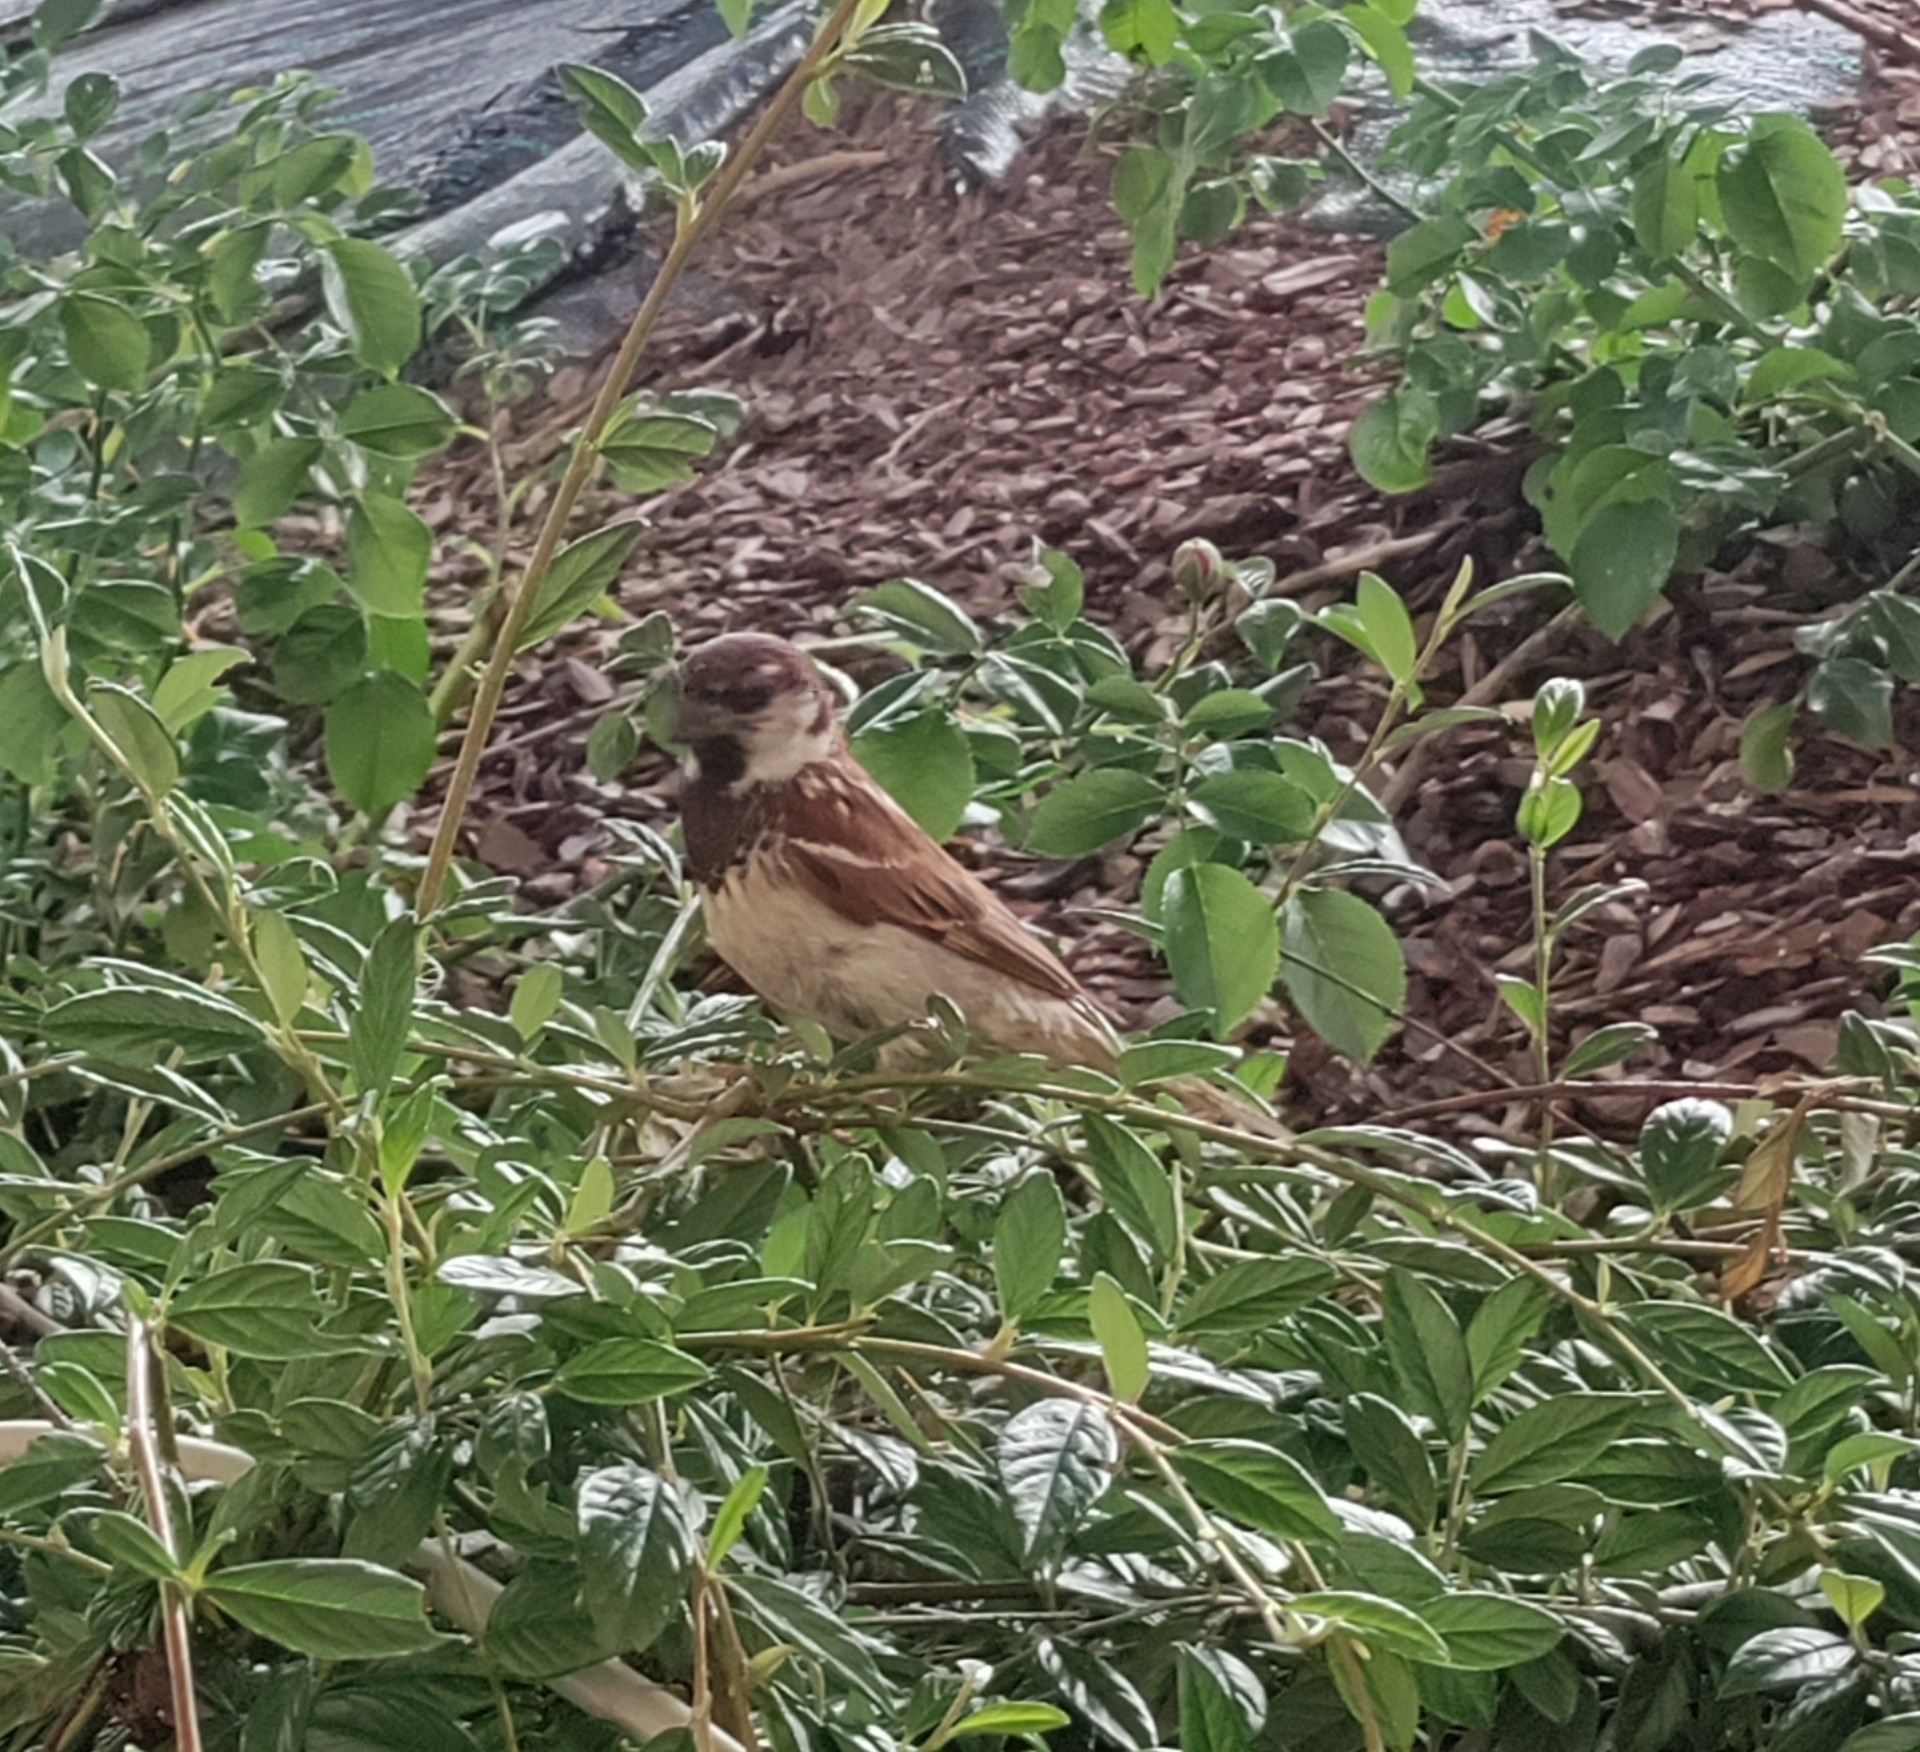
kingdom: Animalia
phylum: Chordata
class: Aves
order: Passeriformes
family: Passeridae
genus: Passer
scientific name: Passer italiae
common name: Italian sparrow
